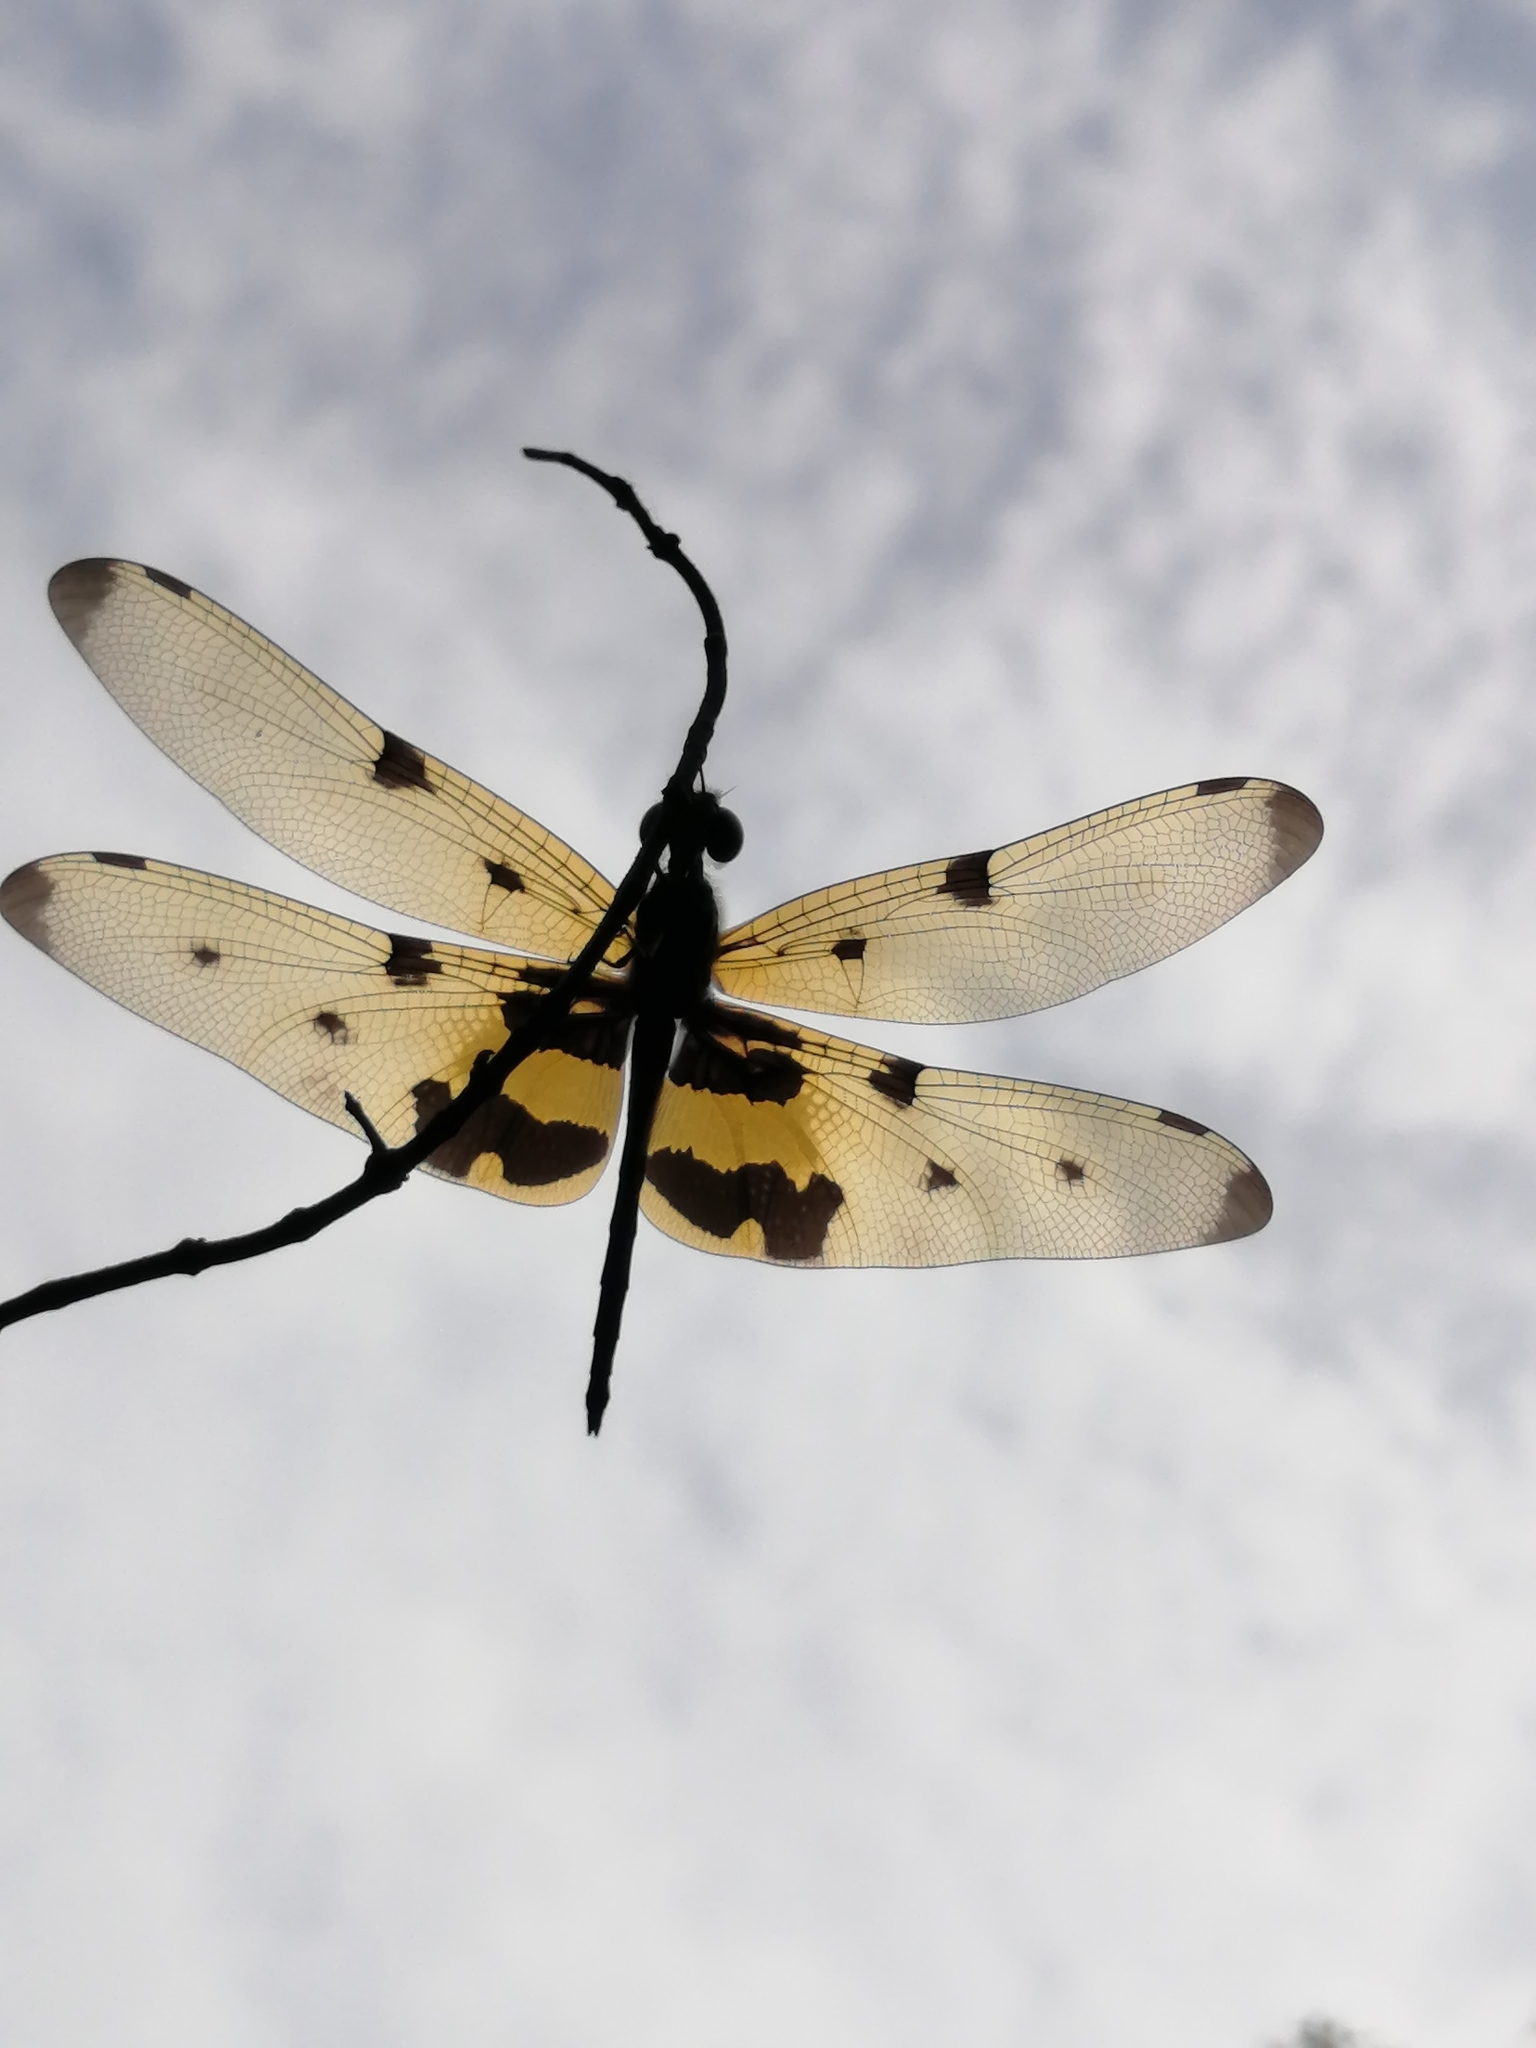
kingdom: Animalia
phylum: Arthropoda
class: Insecta
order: Odonata
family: Libellulidae
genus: Rhyothemis
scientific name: Rhyothemis variegata
